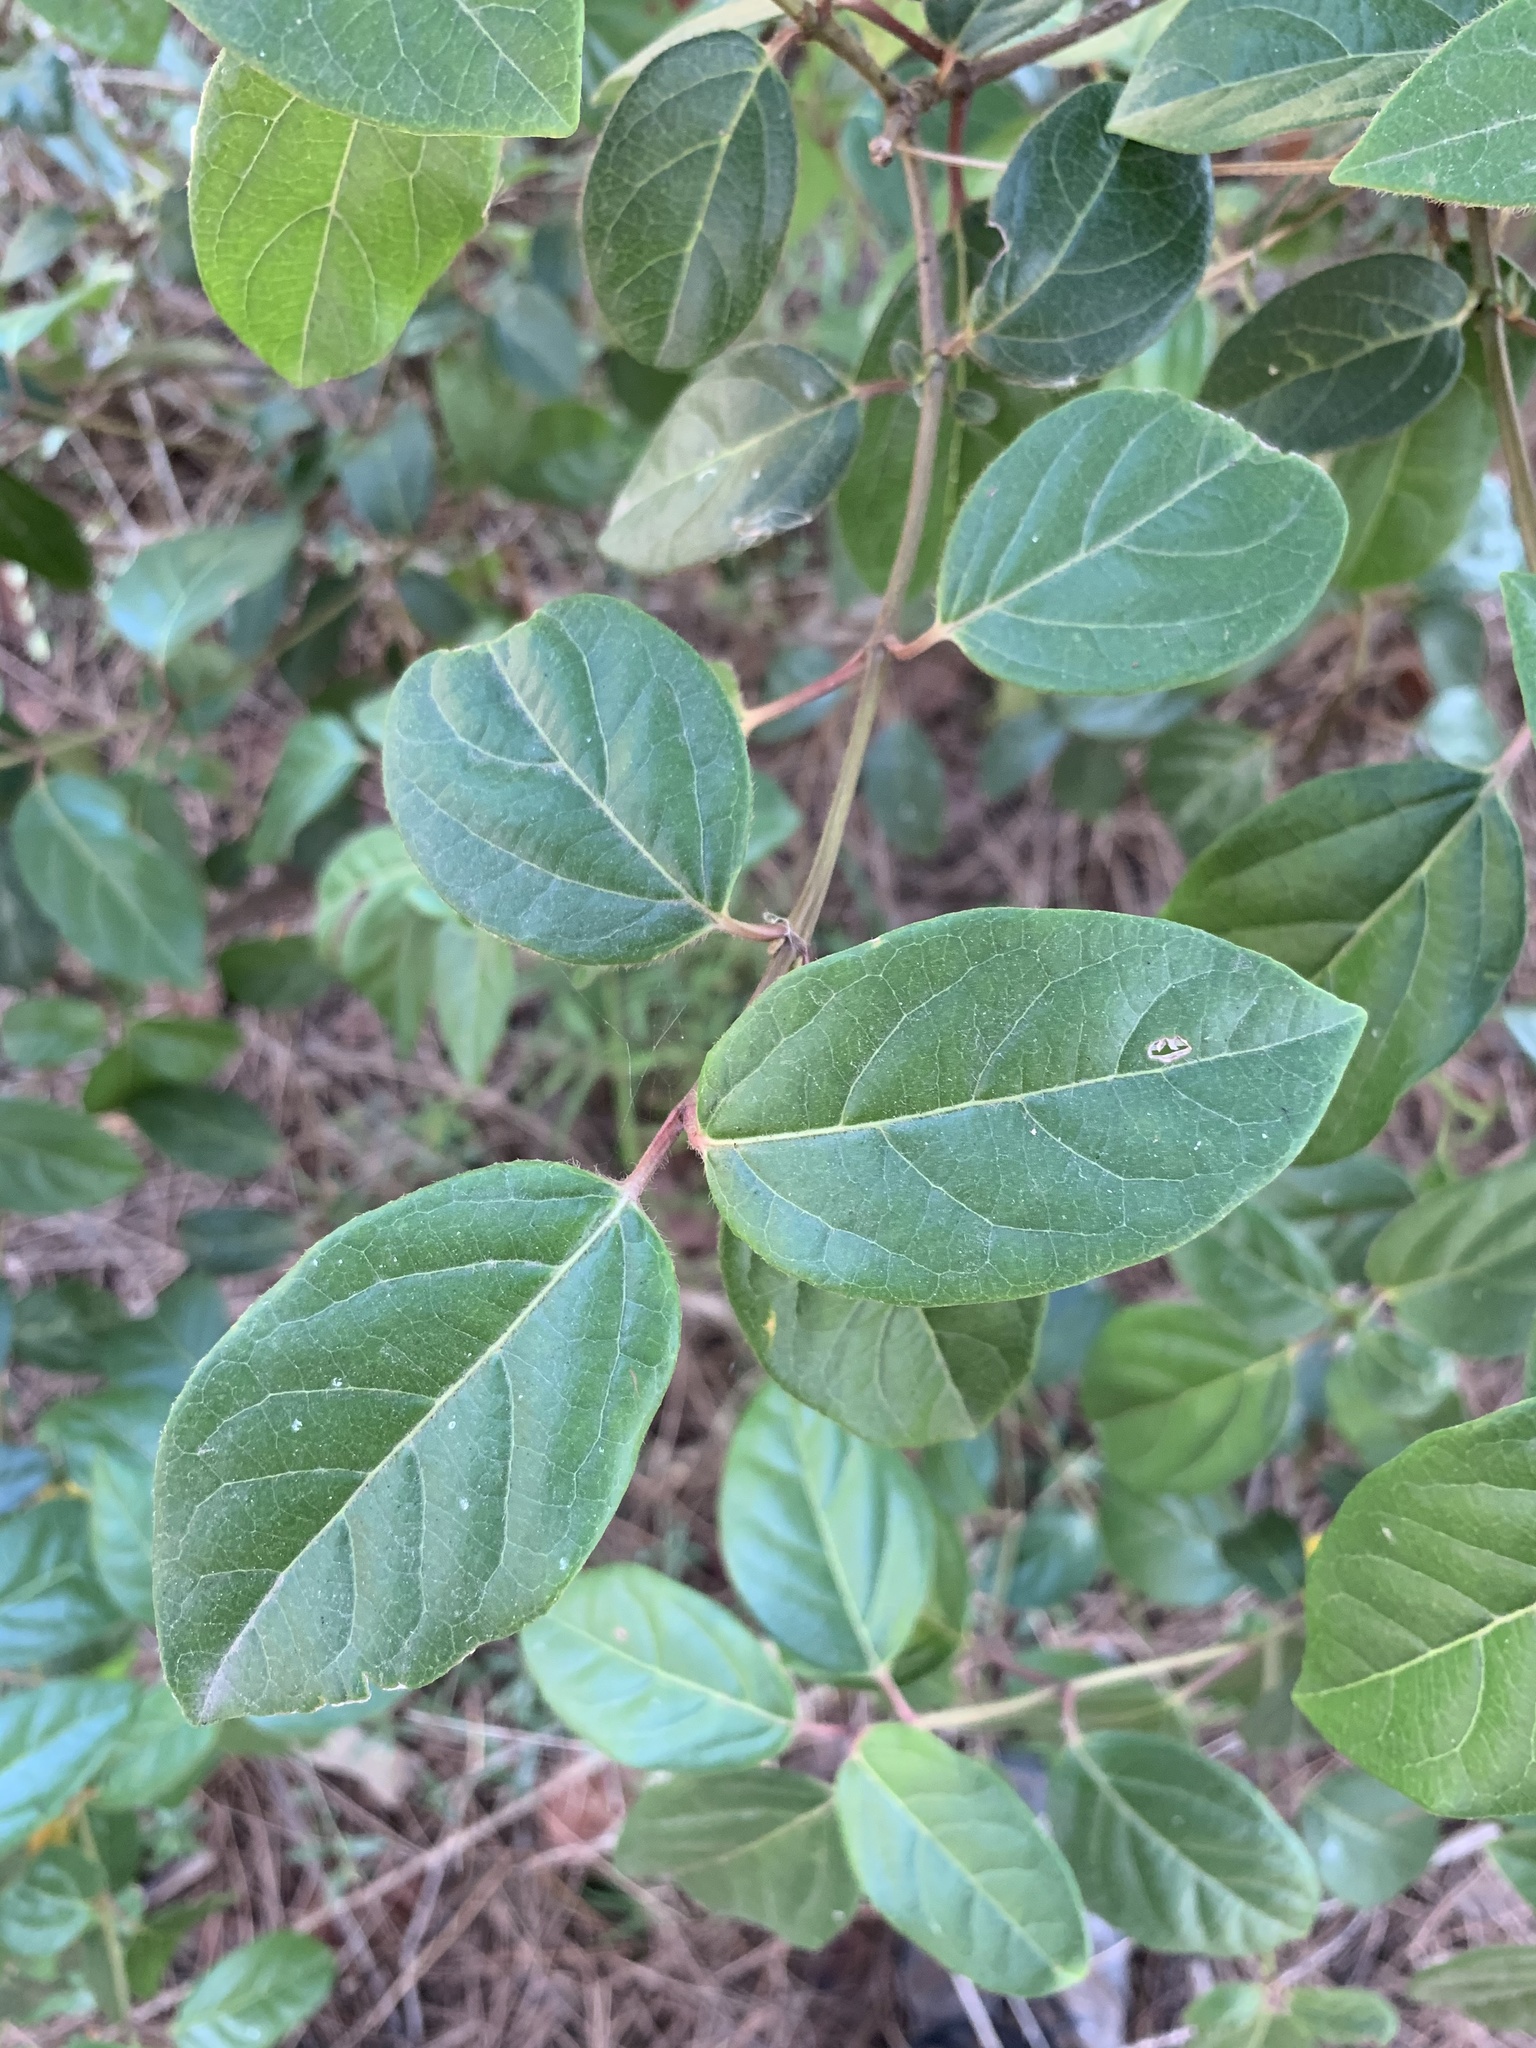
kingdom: Plantae
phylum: Tracheophyta
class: Magnoliopsida
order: Dipsacales
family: Viburnaceae
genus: Viburnum
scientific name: Viburnum tinus
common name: Laurustinus
